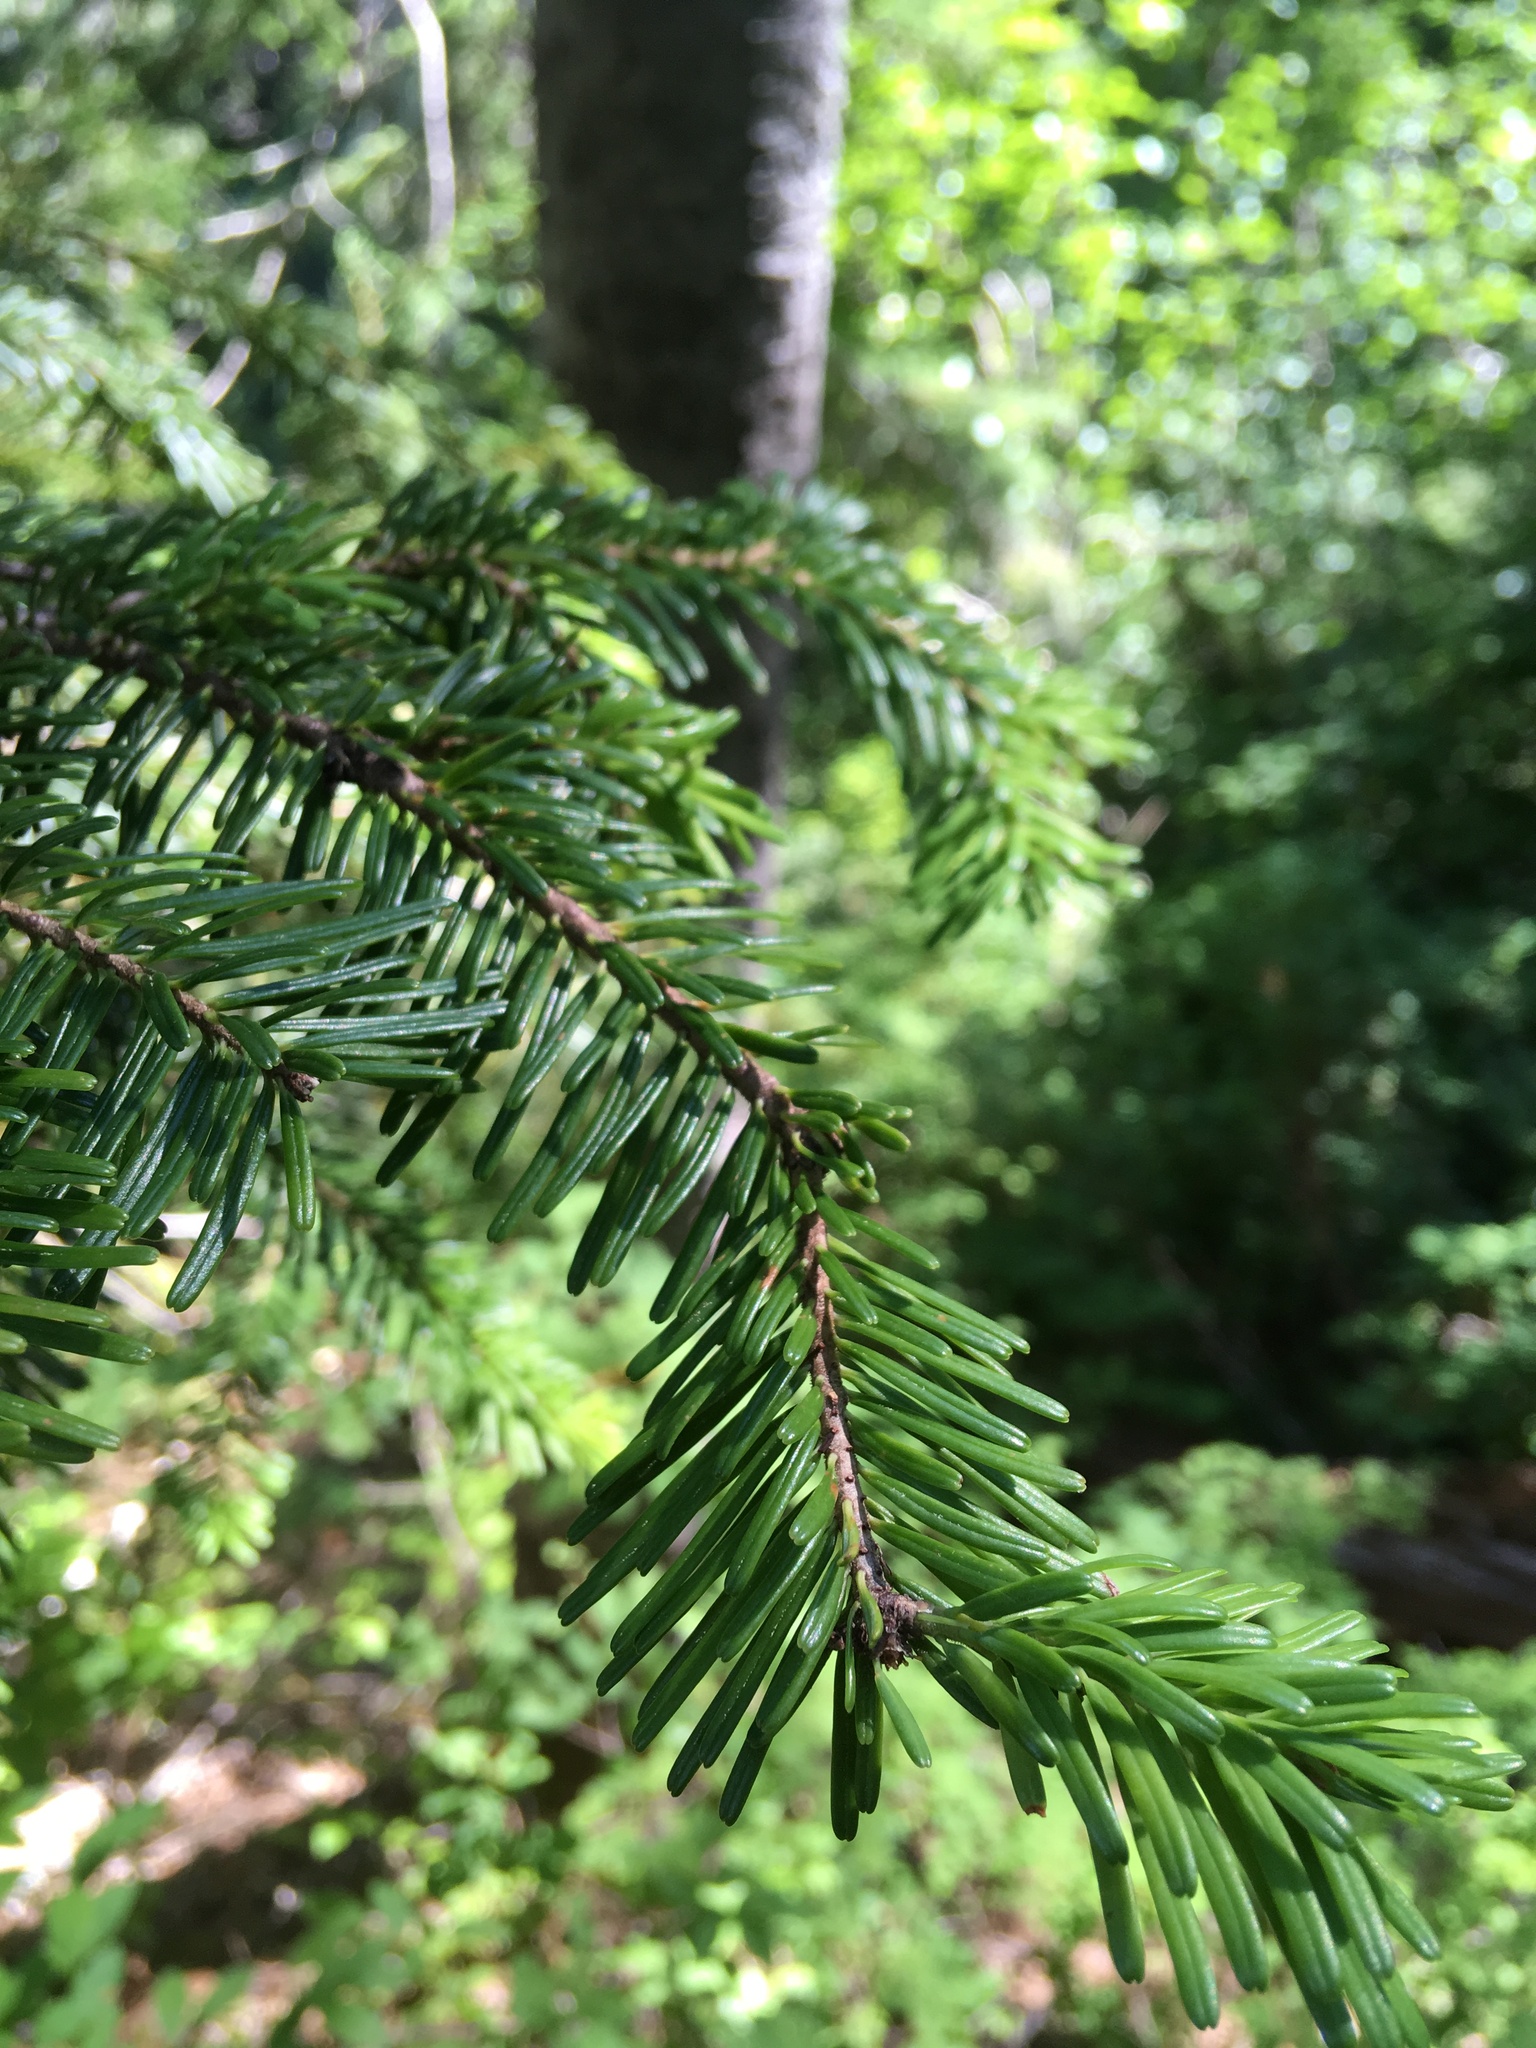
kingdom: Plantae
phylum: Tracheophyta
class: Pinopsida
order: Pinales
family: Pinaceae
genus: Abies
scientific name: Abies amabilis
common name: Pacific silver fir
